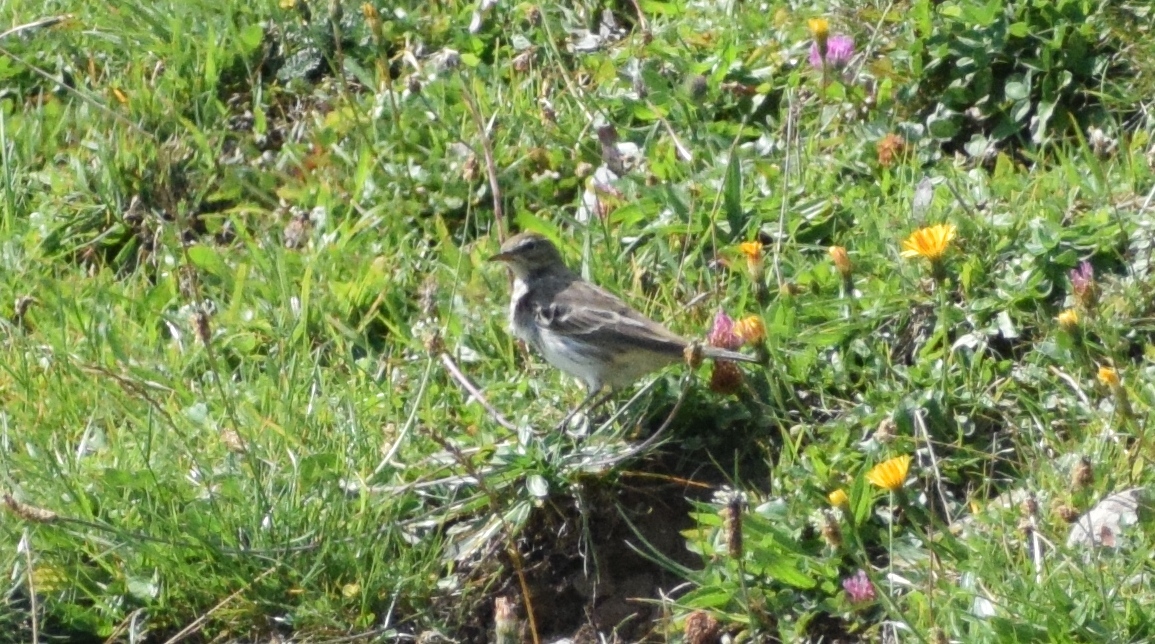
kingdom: Animalia
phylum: Chordata
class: Aves
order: Passeriformes
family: Motacillidae
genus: Anthus
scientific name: Anthus spinoletta
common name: Water pipit
